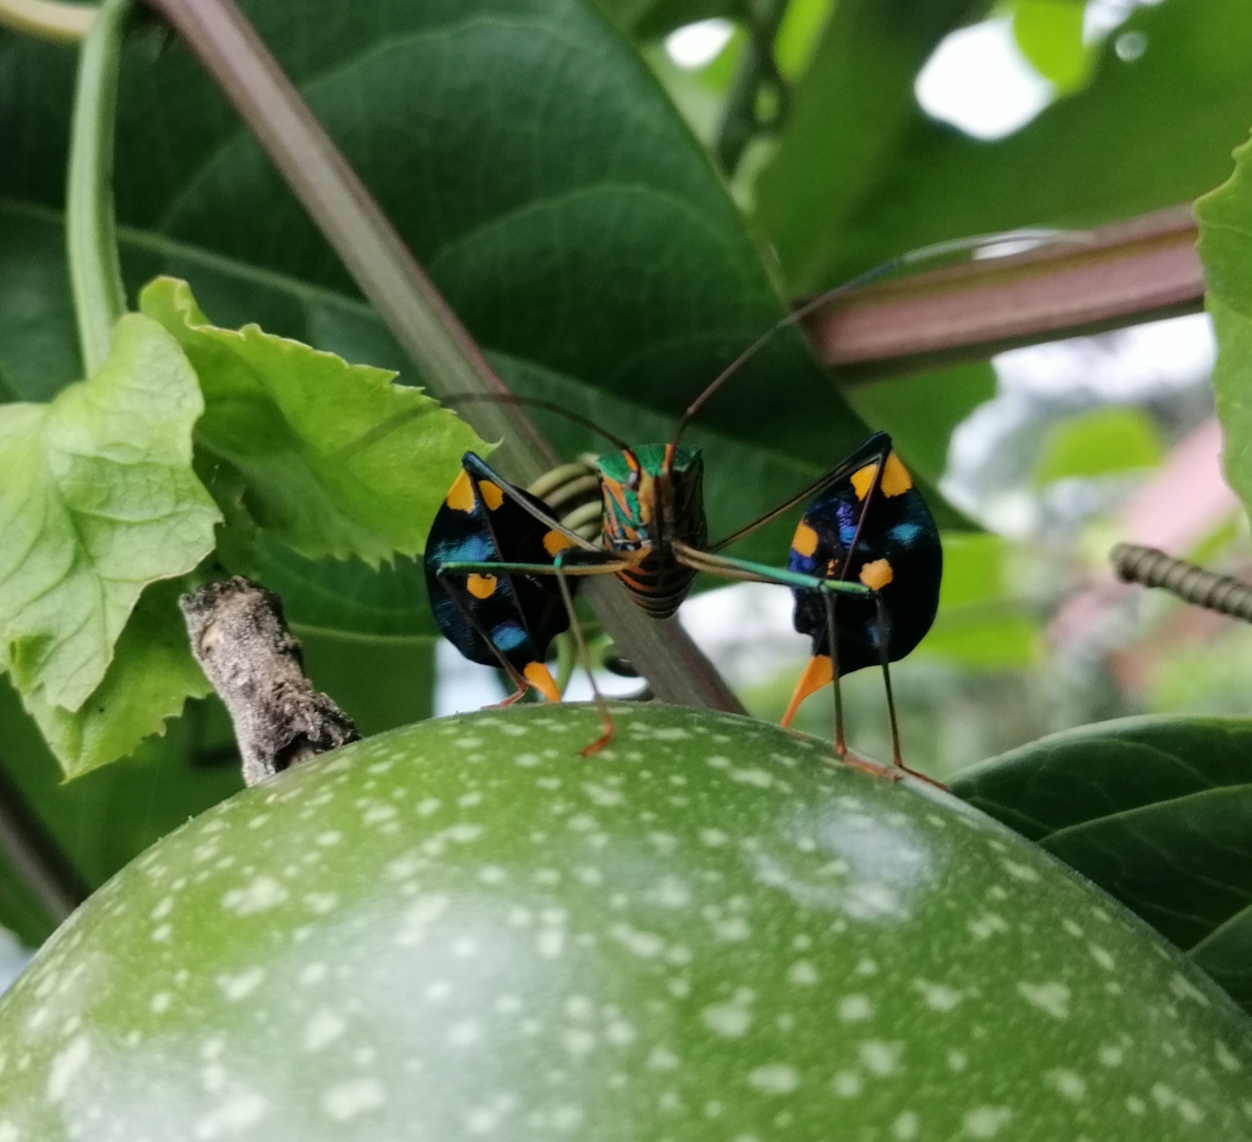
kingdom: Animalia
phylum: Arthropoda
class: Insecta
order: Hemiptera
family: Coreidae
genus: Diactor
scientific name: Diactor bilineatus
